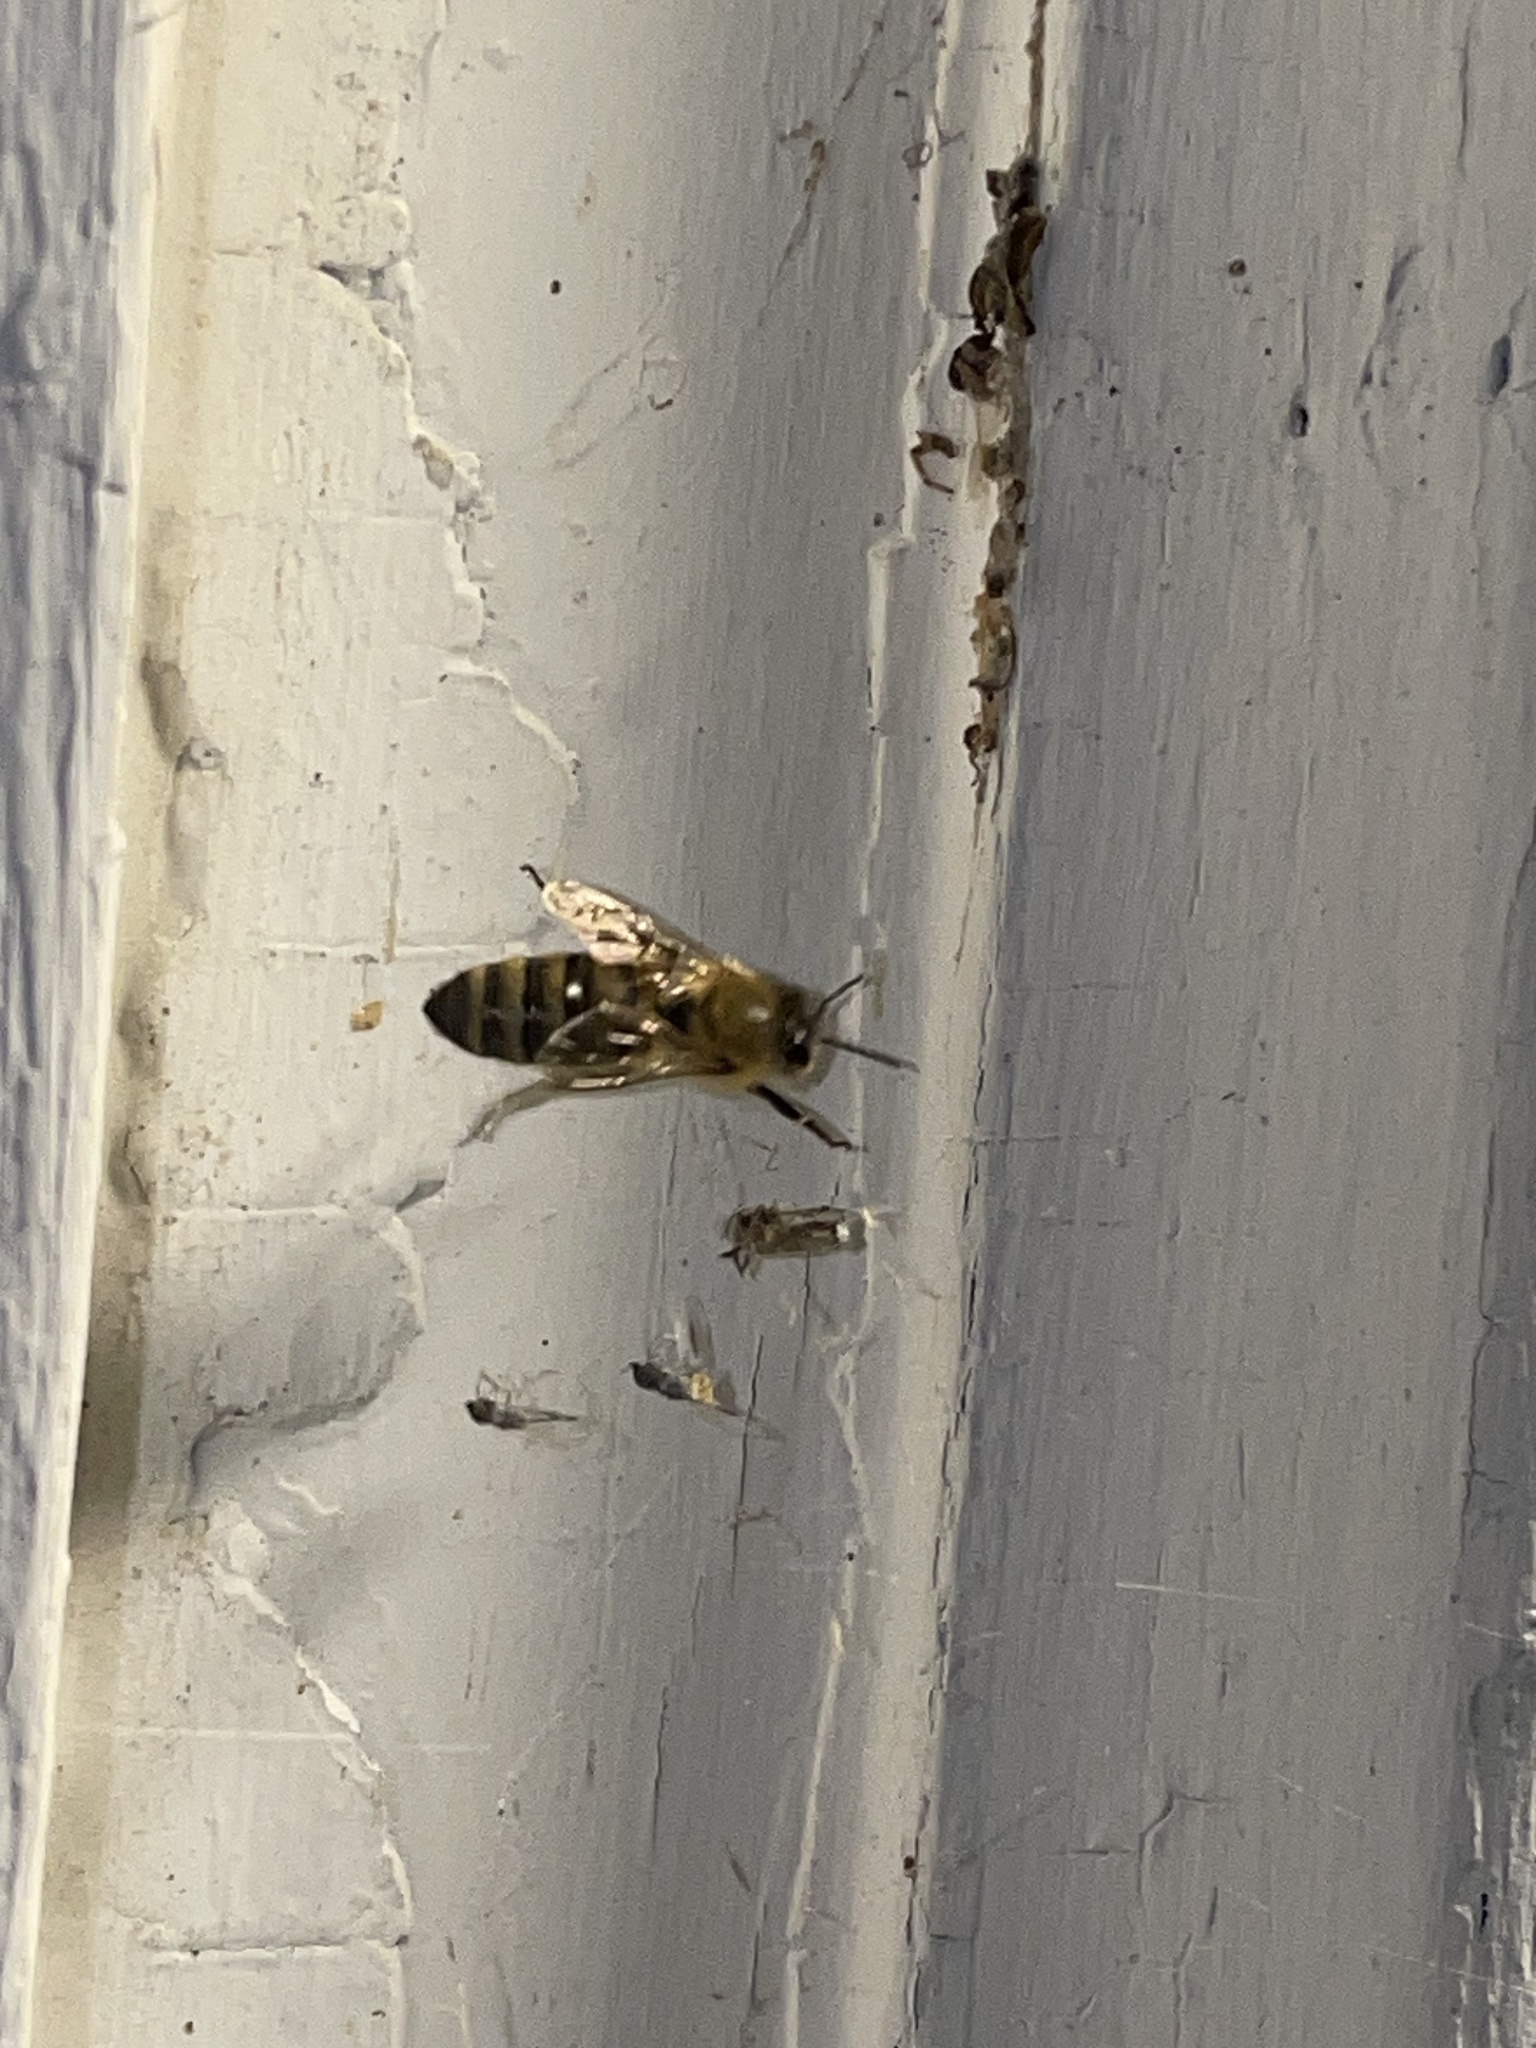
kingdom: Animalia
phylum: Arthropoda
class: Insecta
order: Hymenoptera
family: Apidae
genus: Apis
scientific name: Apis mellifera
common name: Honey bee
